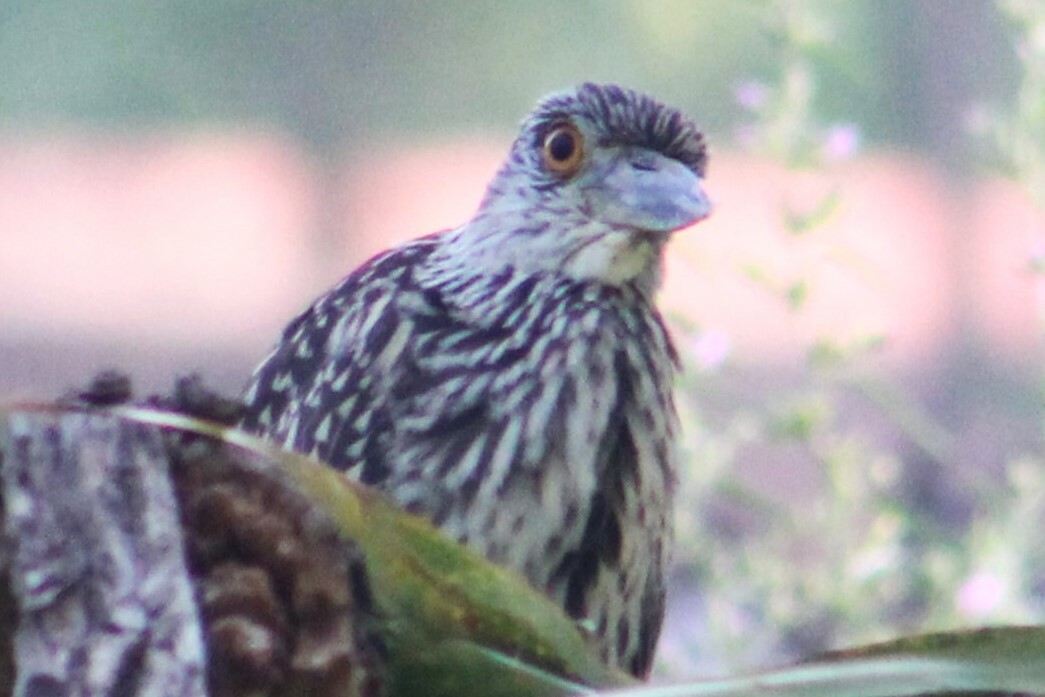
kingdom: Animalia
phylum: Chordata
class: Aves
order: Pelecaniformes
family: Ardeidae
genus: Nyctanassa
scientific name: Nyctanassa violacea
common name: Yellow-crowned night heron
